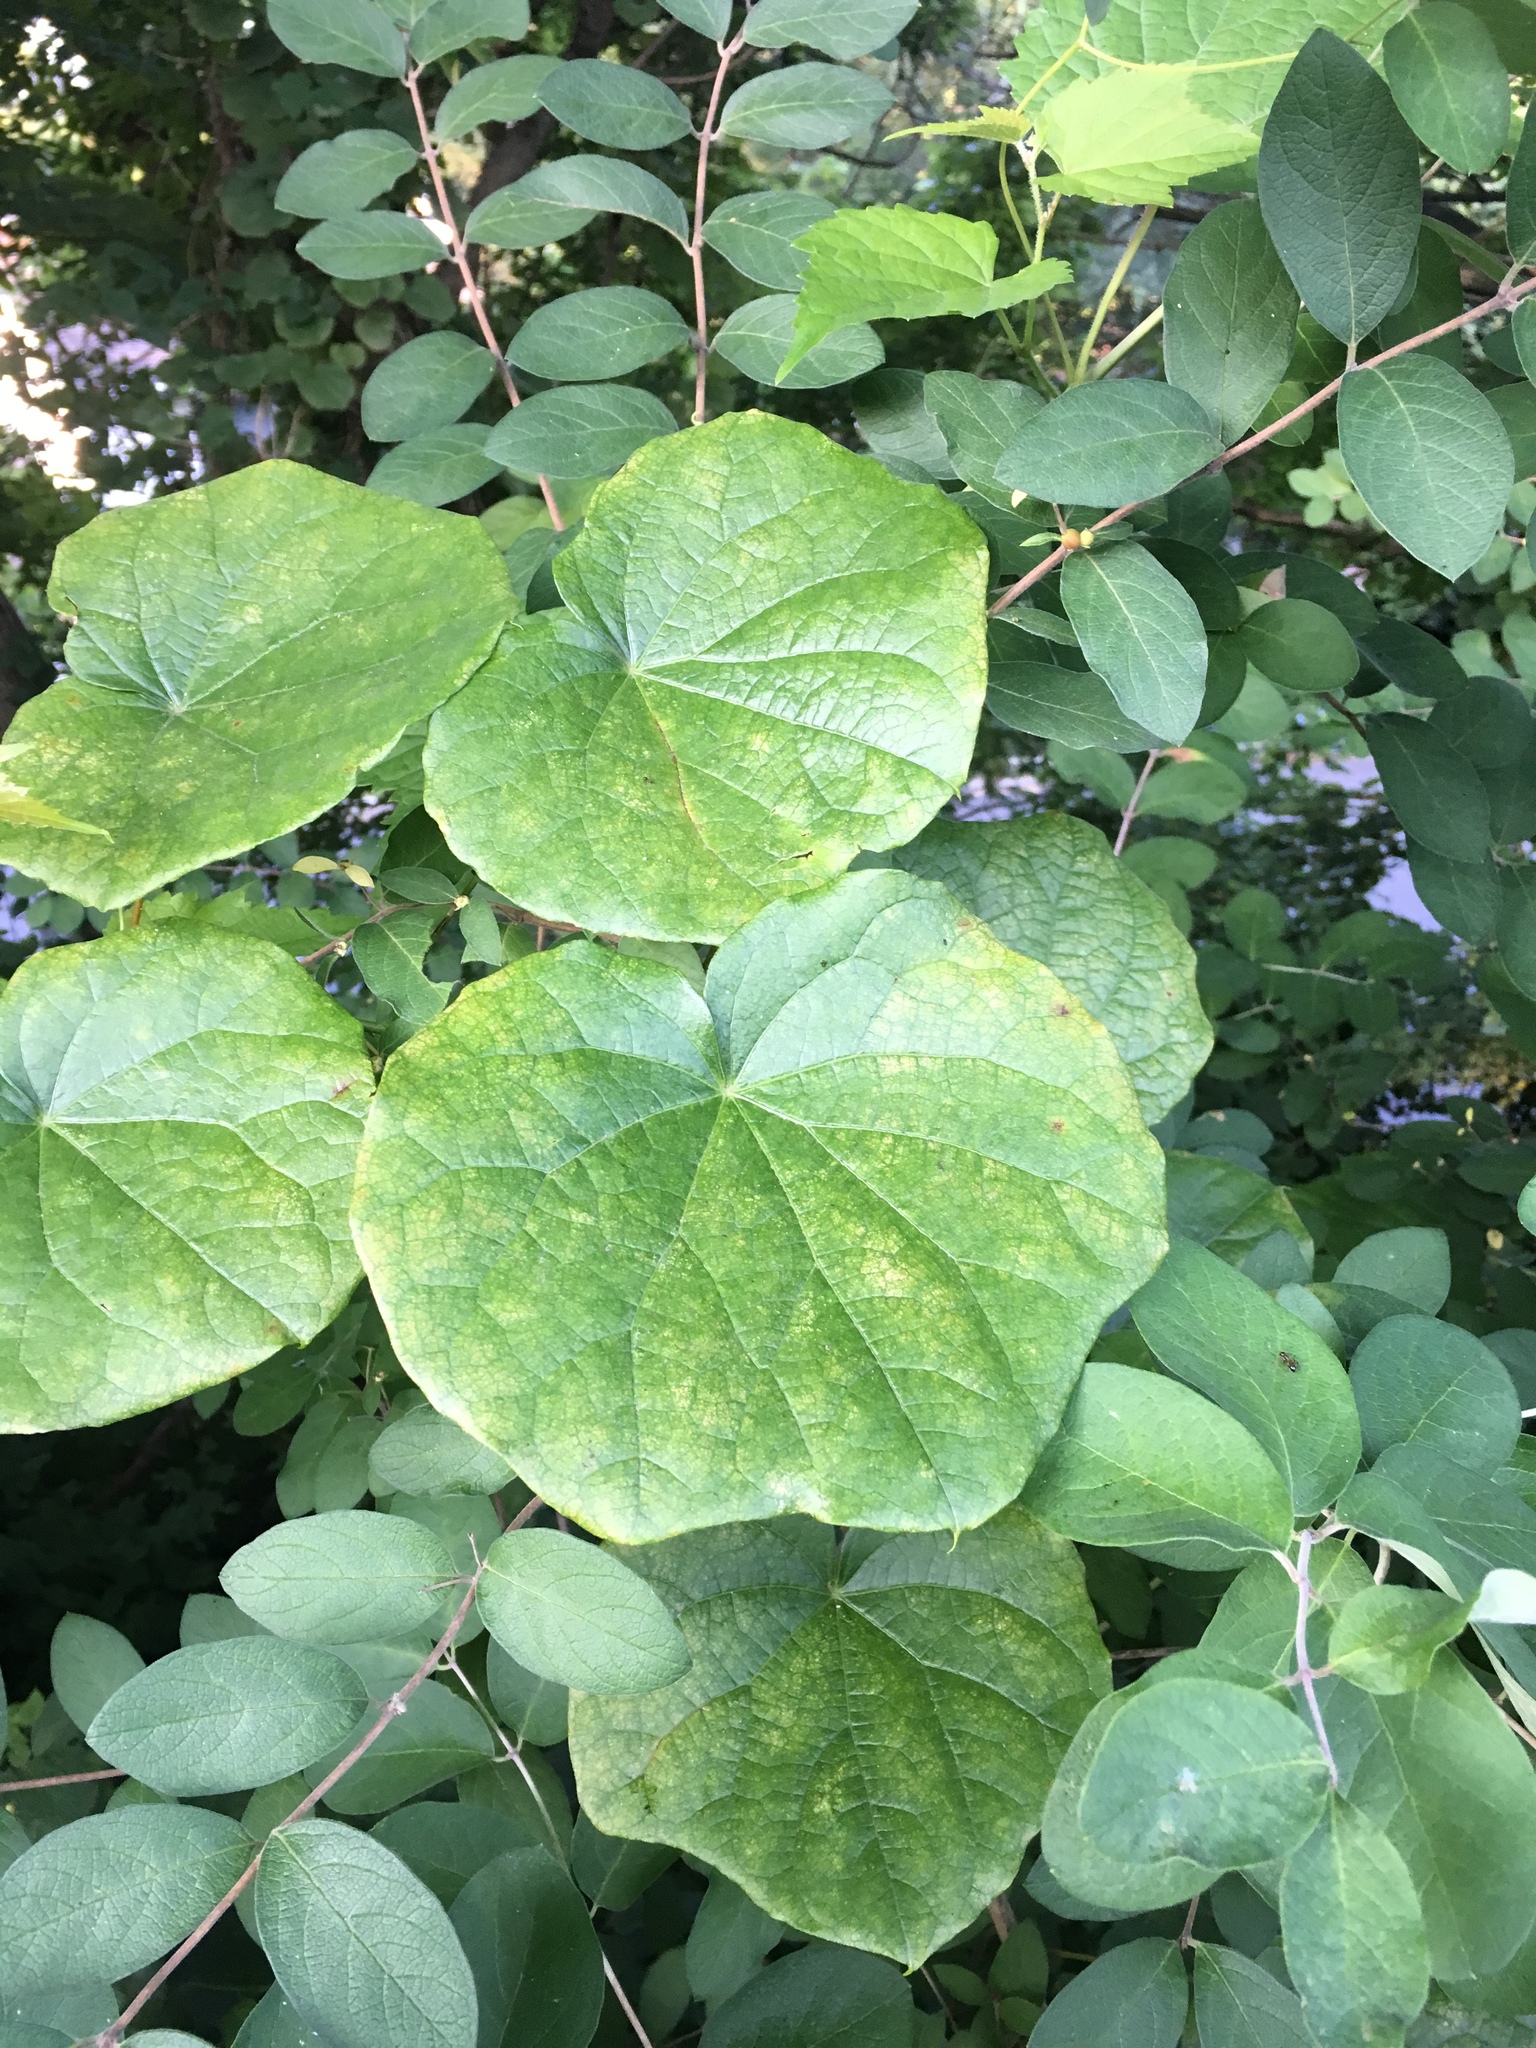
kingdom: Plantae
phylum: Tracheophyta
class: Magnoliopsida
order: Ranunculales
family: Menispermaceae
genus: Menispermum
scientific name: Menispermum canadense
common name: Moonseed
